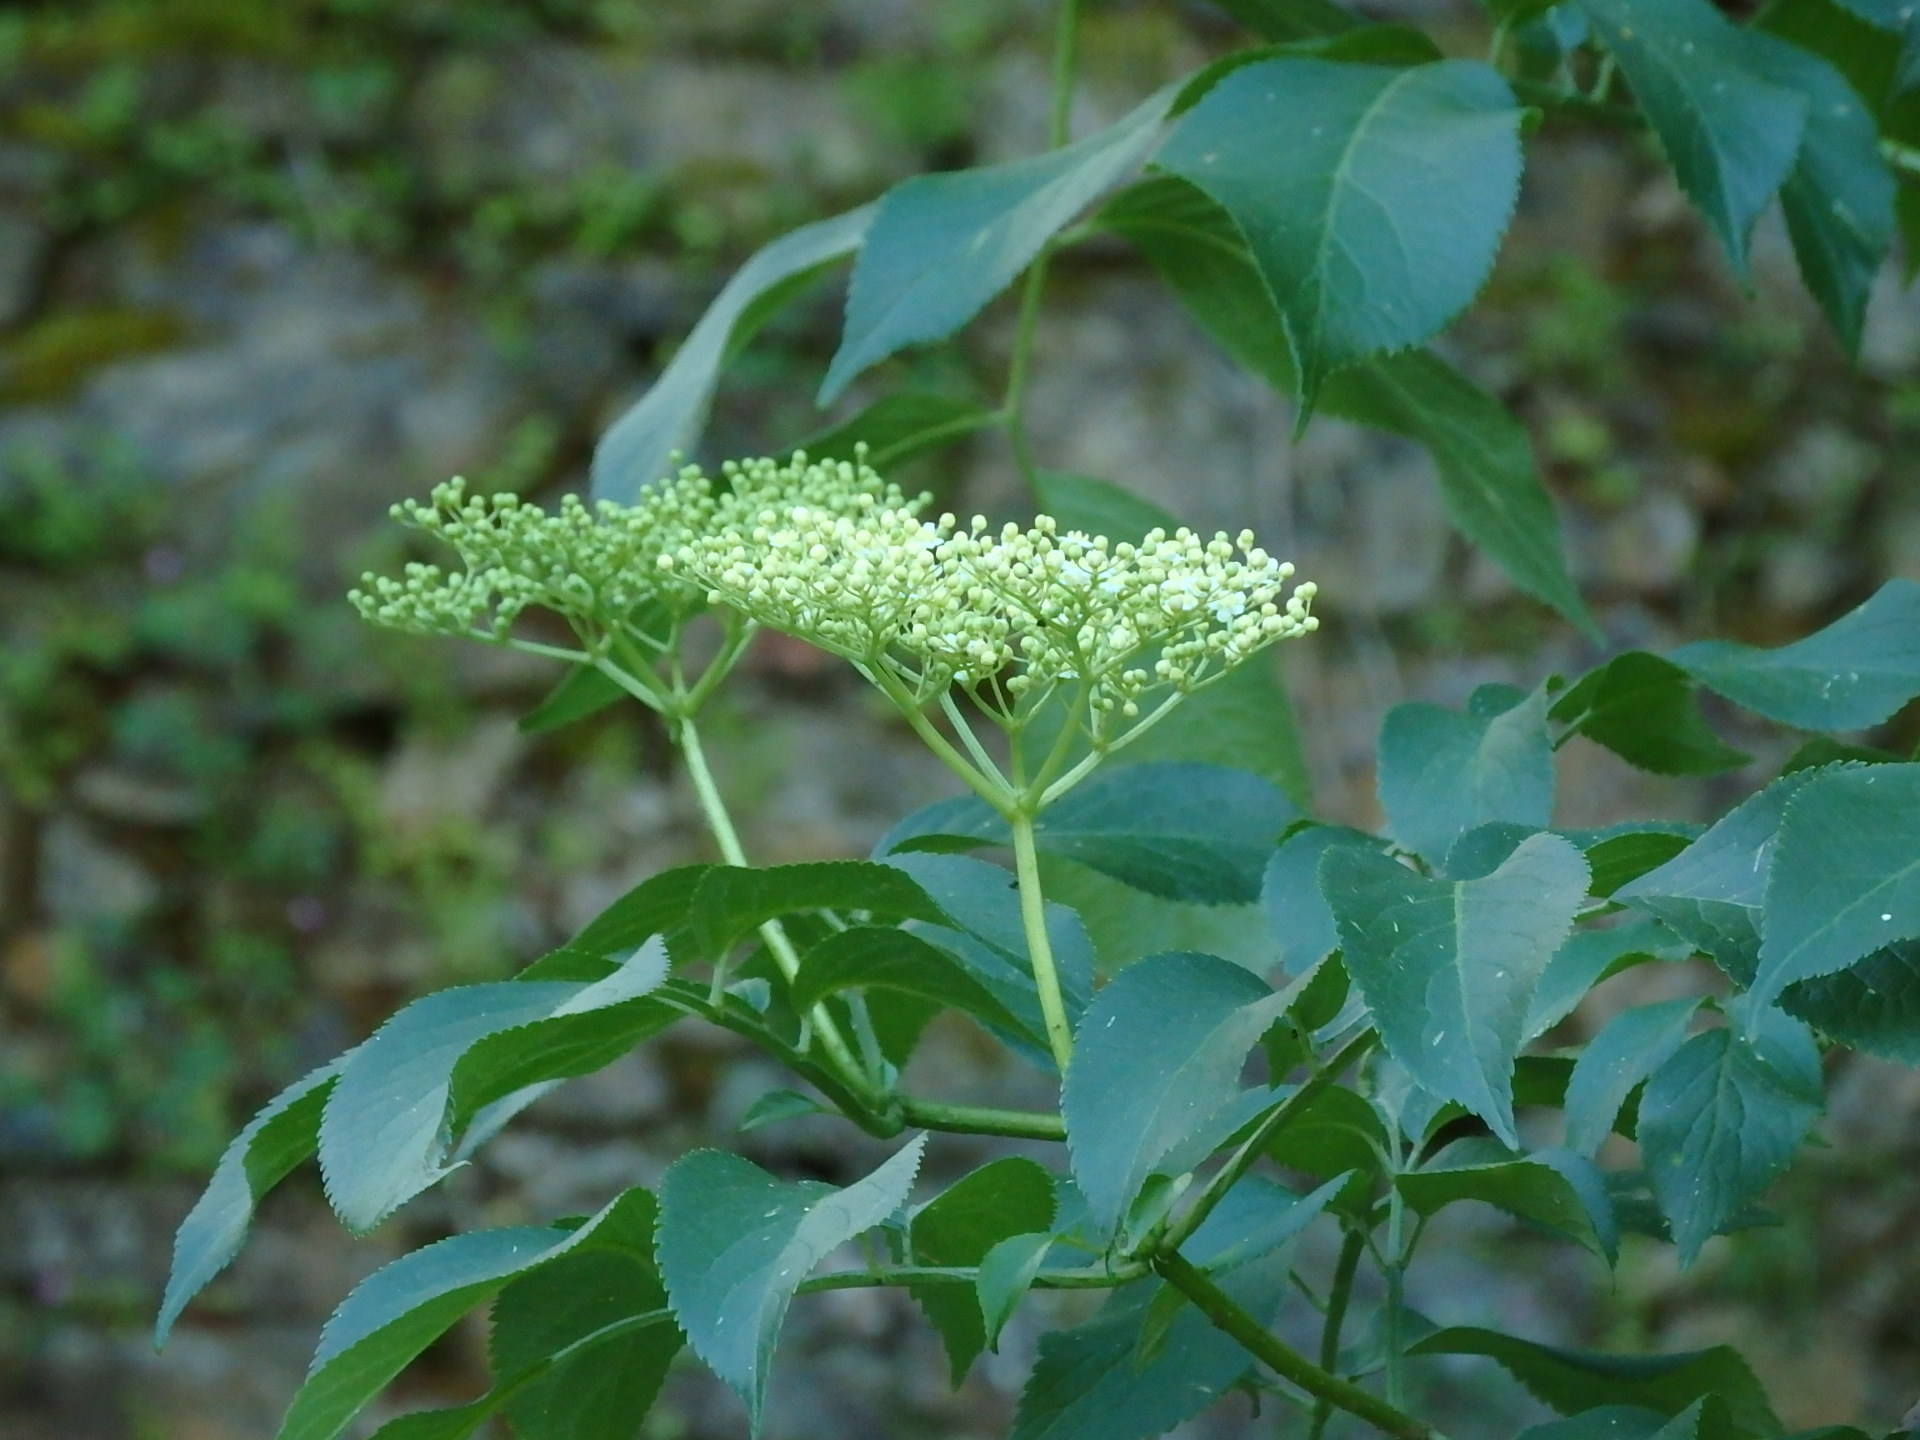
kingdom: Plantae
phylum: Tracheophyta
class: Magnoliopsida
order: Dipsacales
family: Viburnaceae
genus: Sambucus
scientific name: Sambucus nigra
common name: Elder
